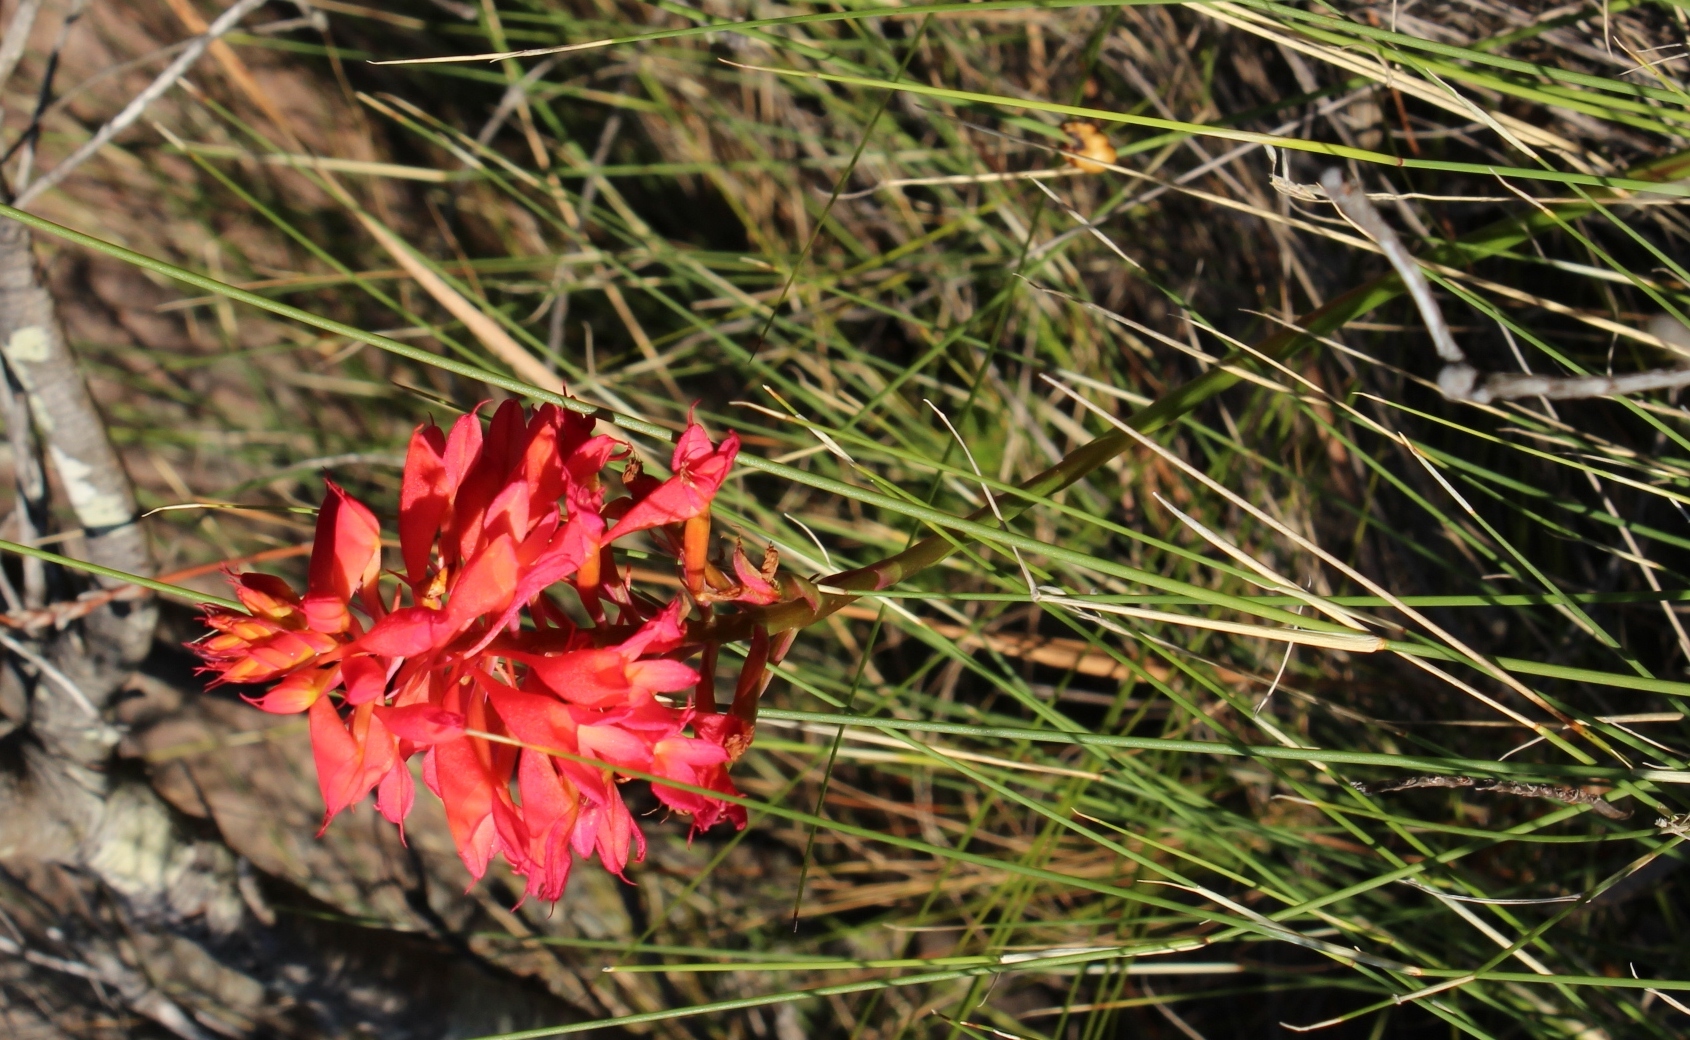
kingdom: Plantae
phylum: Tracheophyta
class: Liliopsida
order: Asparagales
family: Orchidaceae
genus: Disa
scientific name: Disa ferruginea
